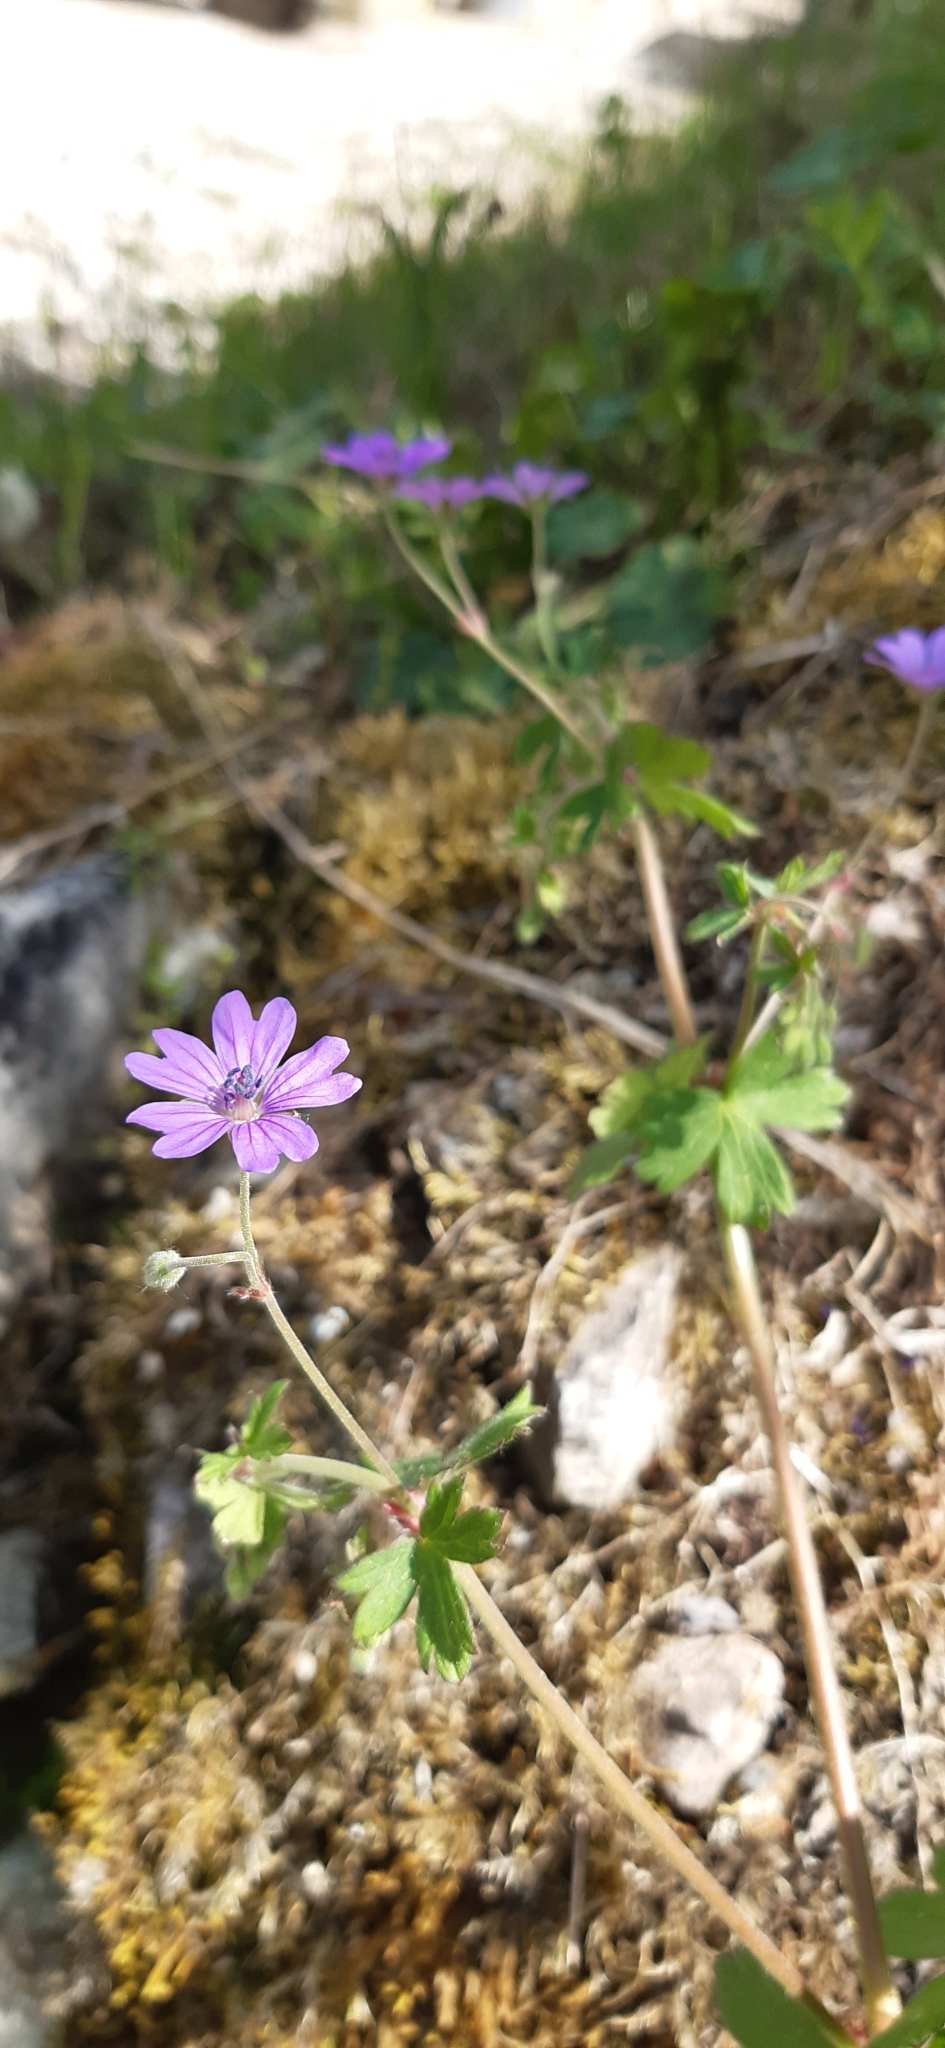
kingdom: Plantae
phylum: Tracheophyta
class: Magnoliopsida
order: Geraniales
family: Geraniaceae
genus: Geranium
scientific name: Geranium pyrenaicum
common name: Hedgerow crane's-bill
